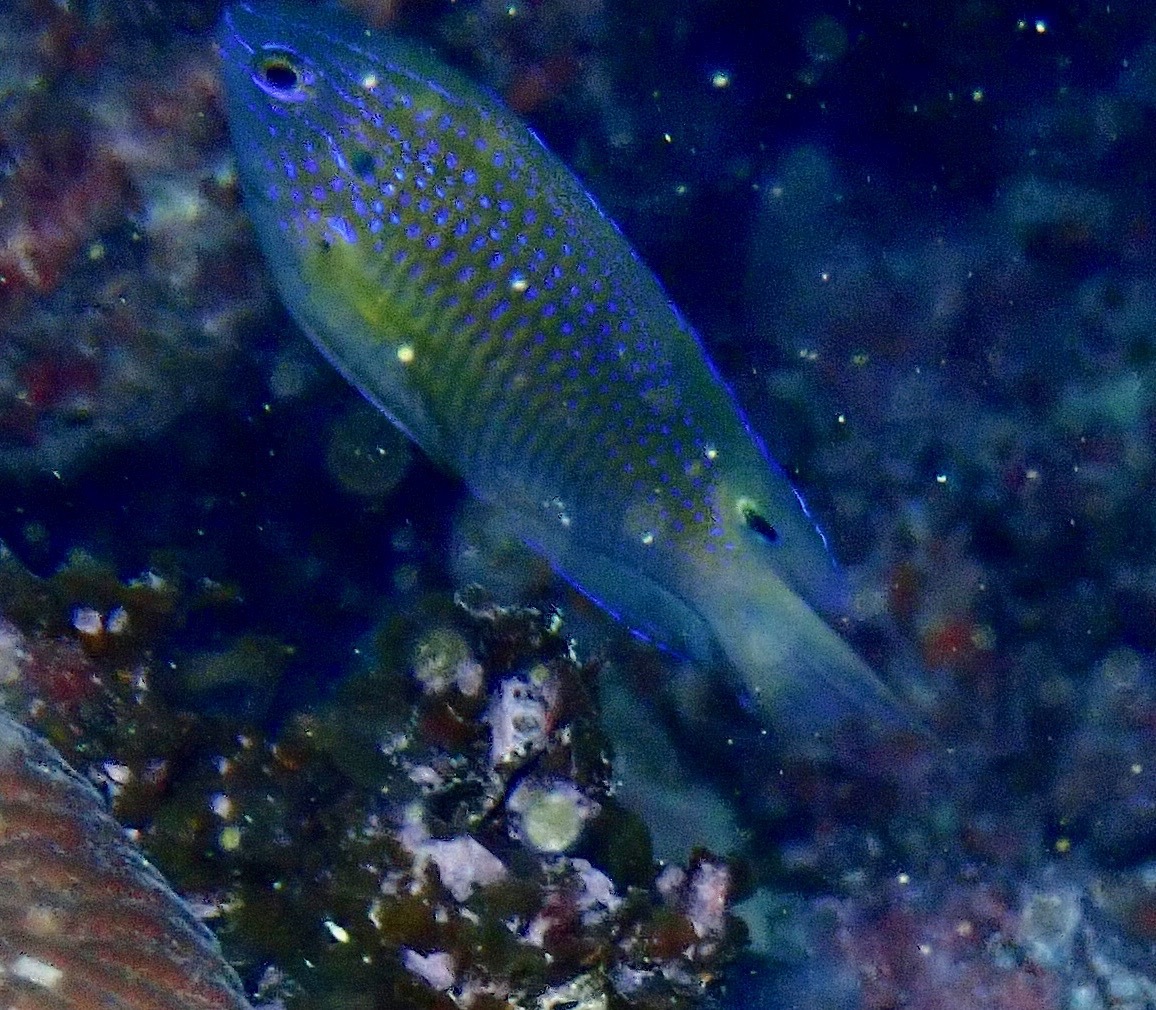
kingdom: Animalia
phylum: Chordata
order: Perciformes
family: Pomacentridae
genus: Pomacentrus
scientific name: Pomacentrus vaiuli
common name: Princess damsel
